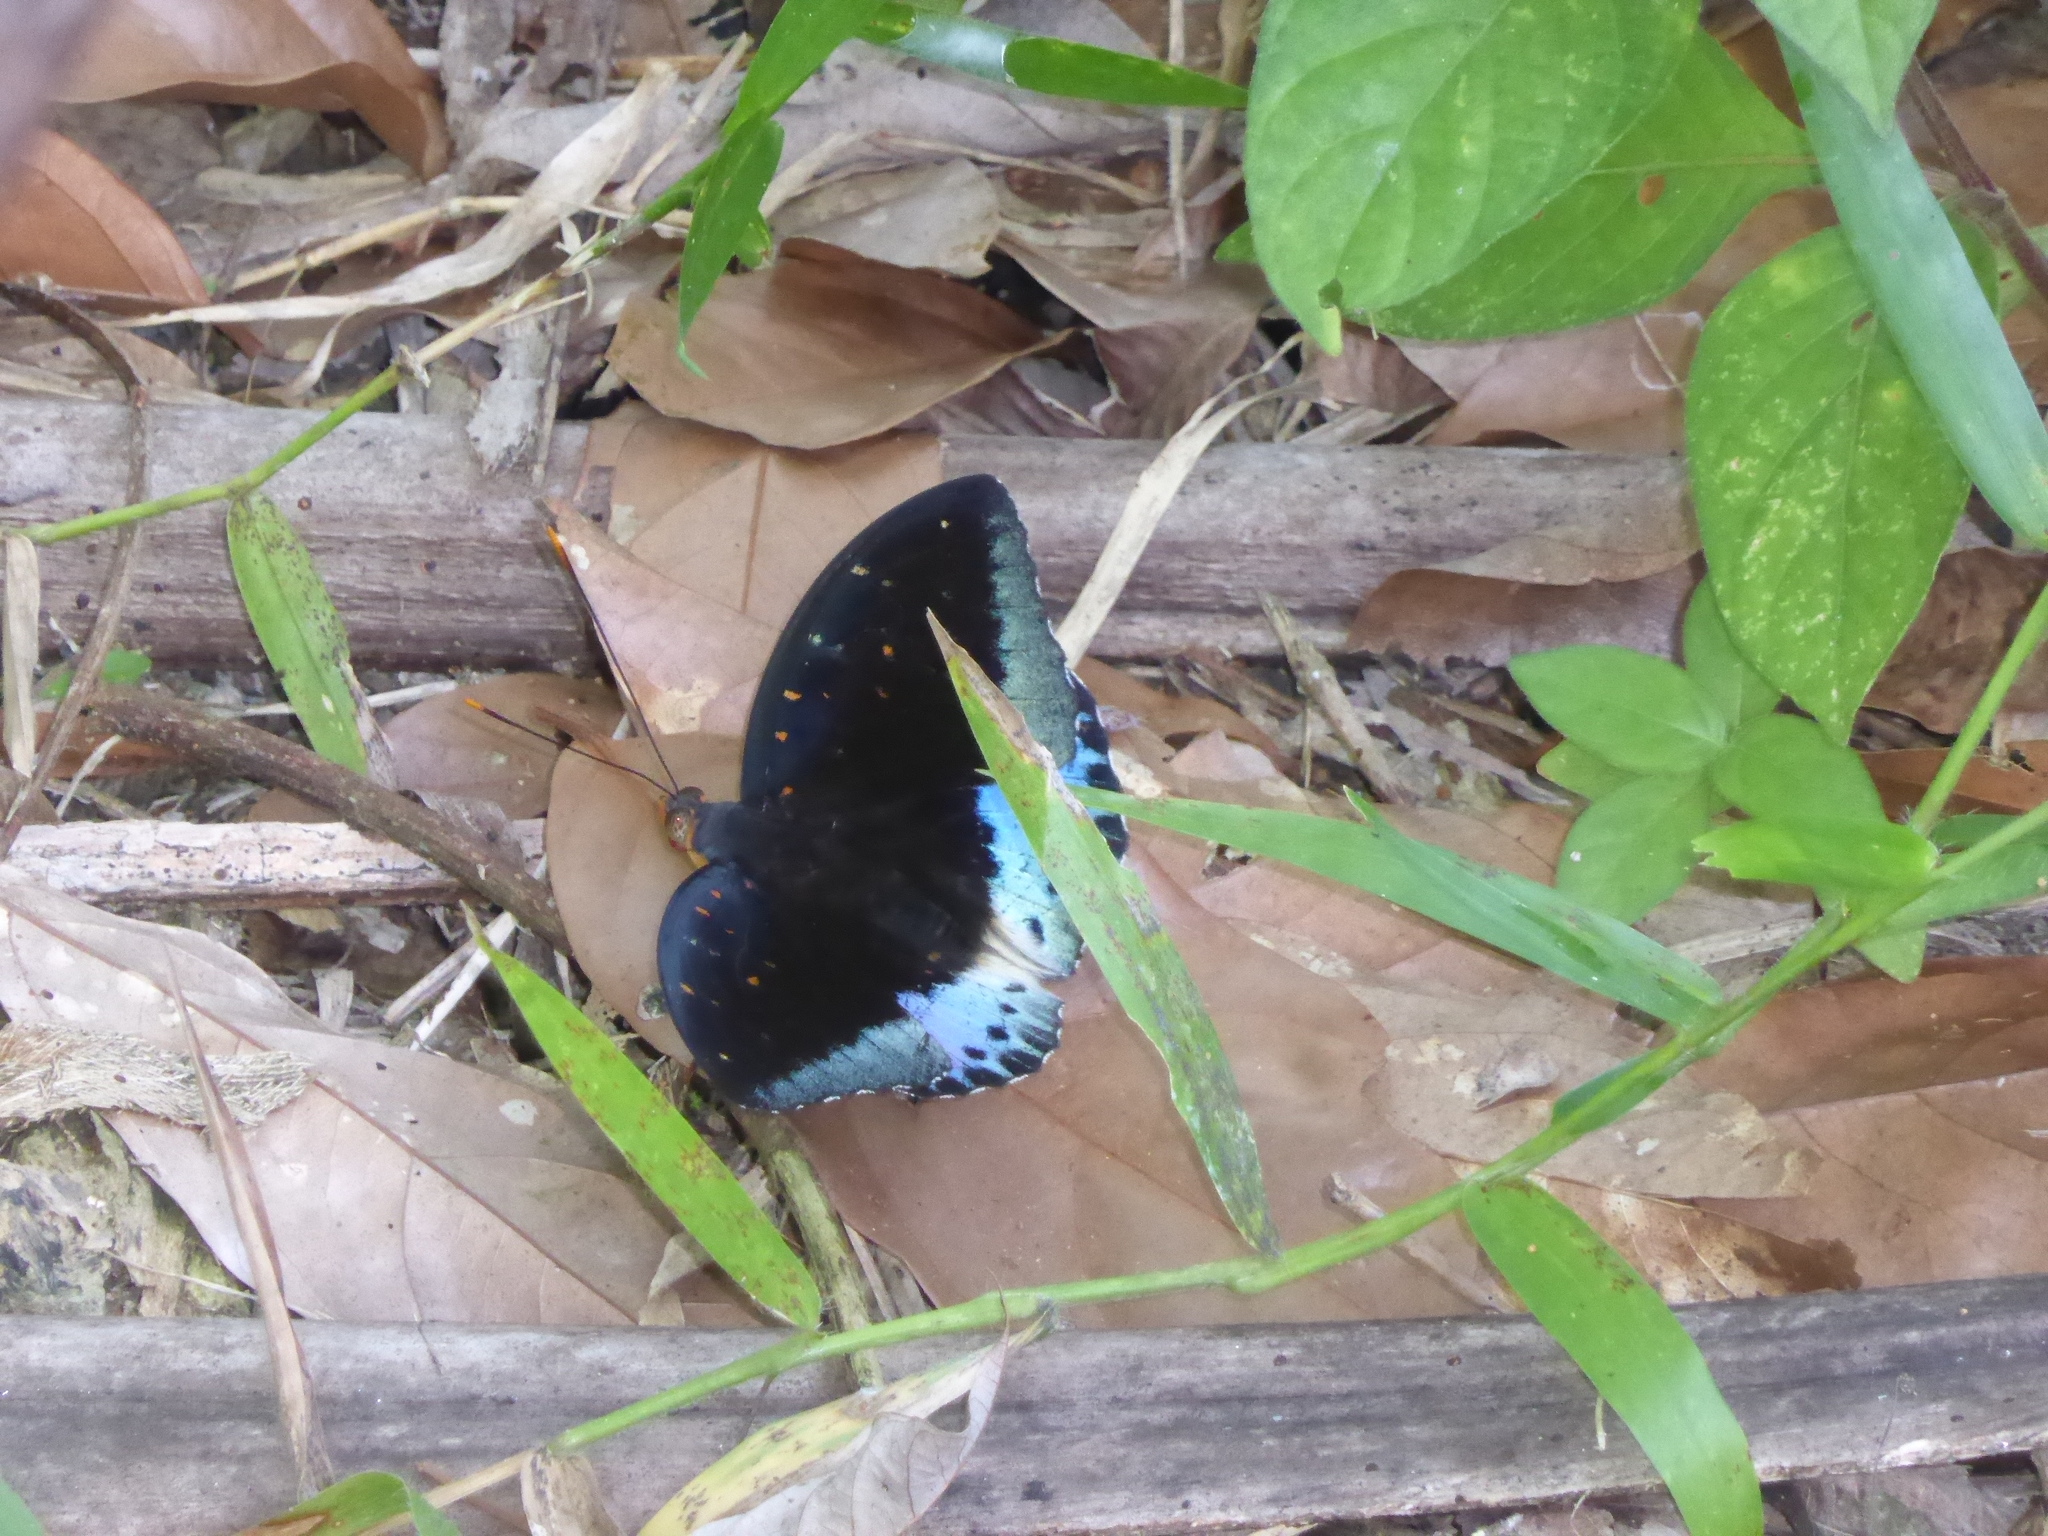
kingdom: Animalia
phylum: Arthropoda
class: Insecta
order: Lepidoptera
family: Nymphalidae
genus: Lexias
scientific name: Lexias pardalis
